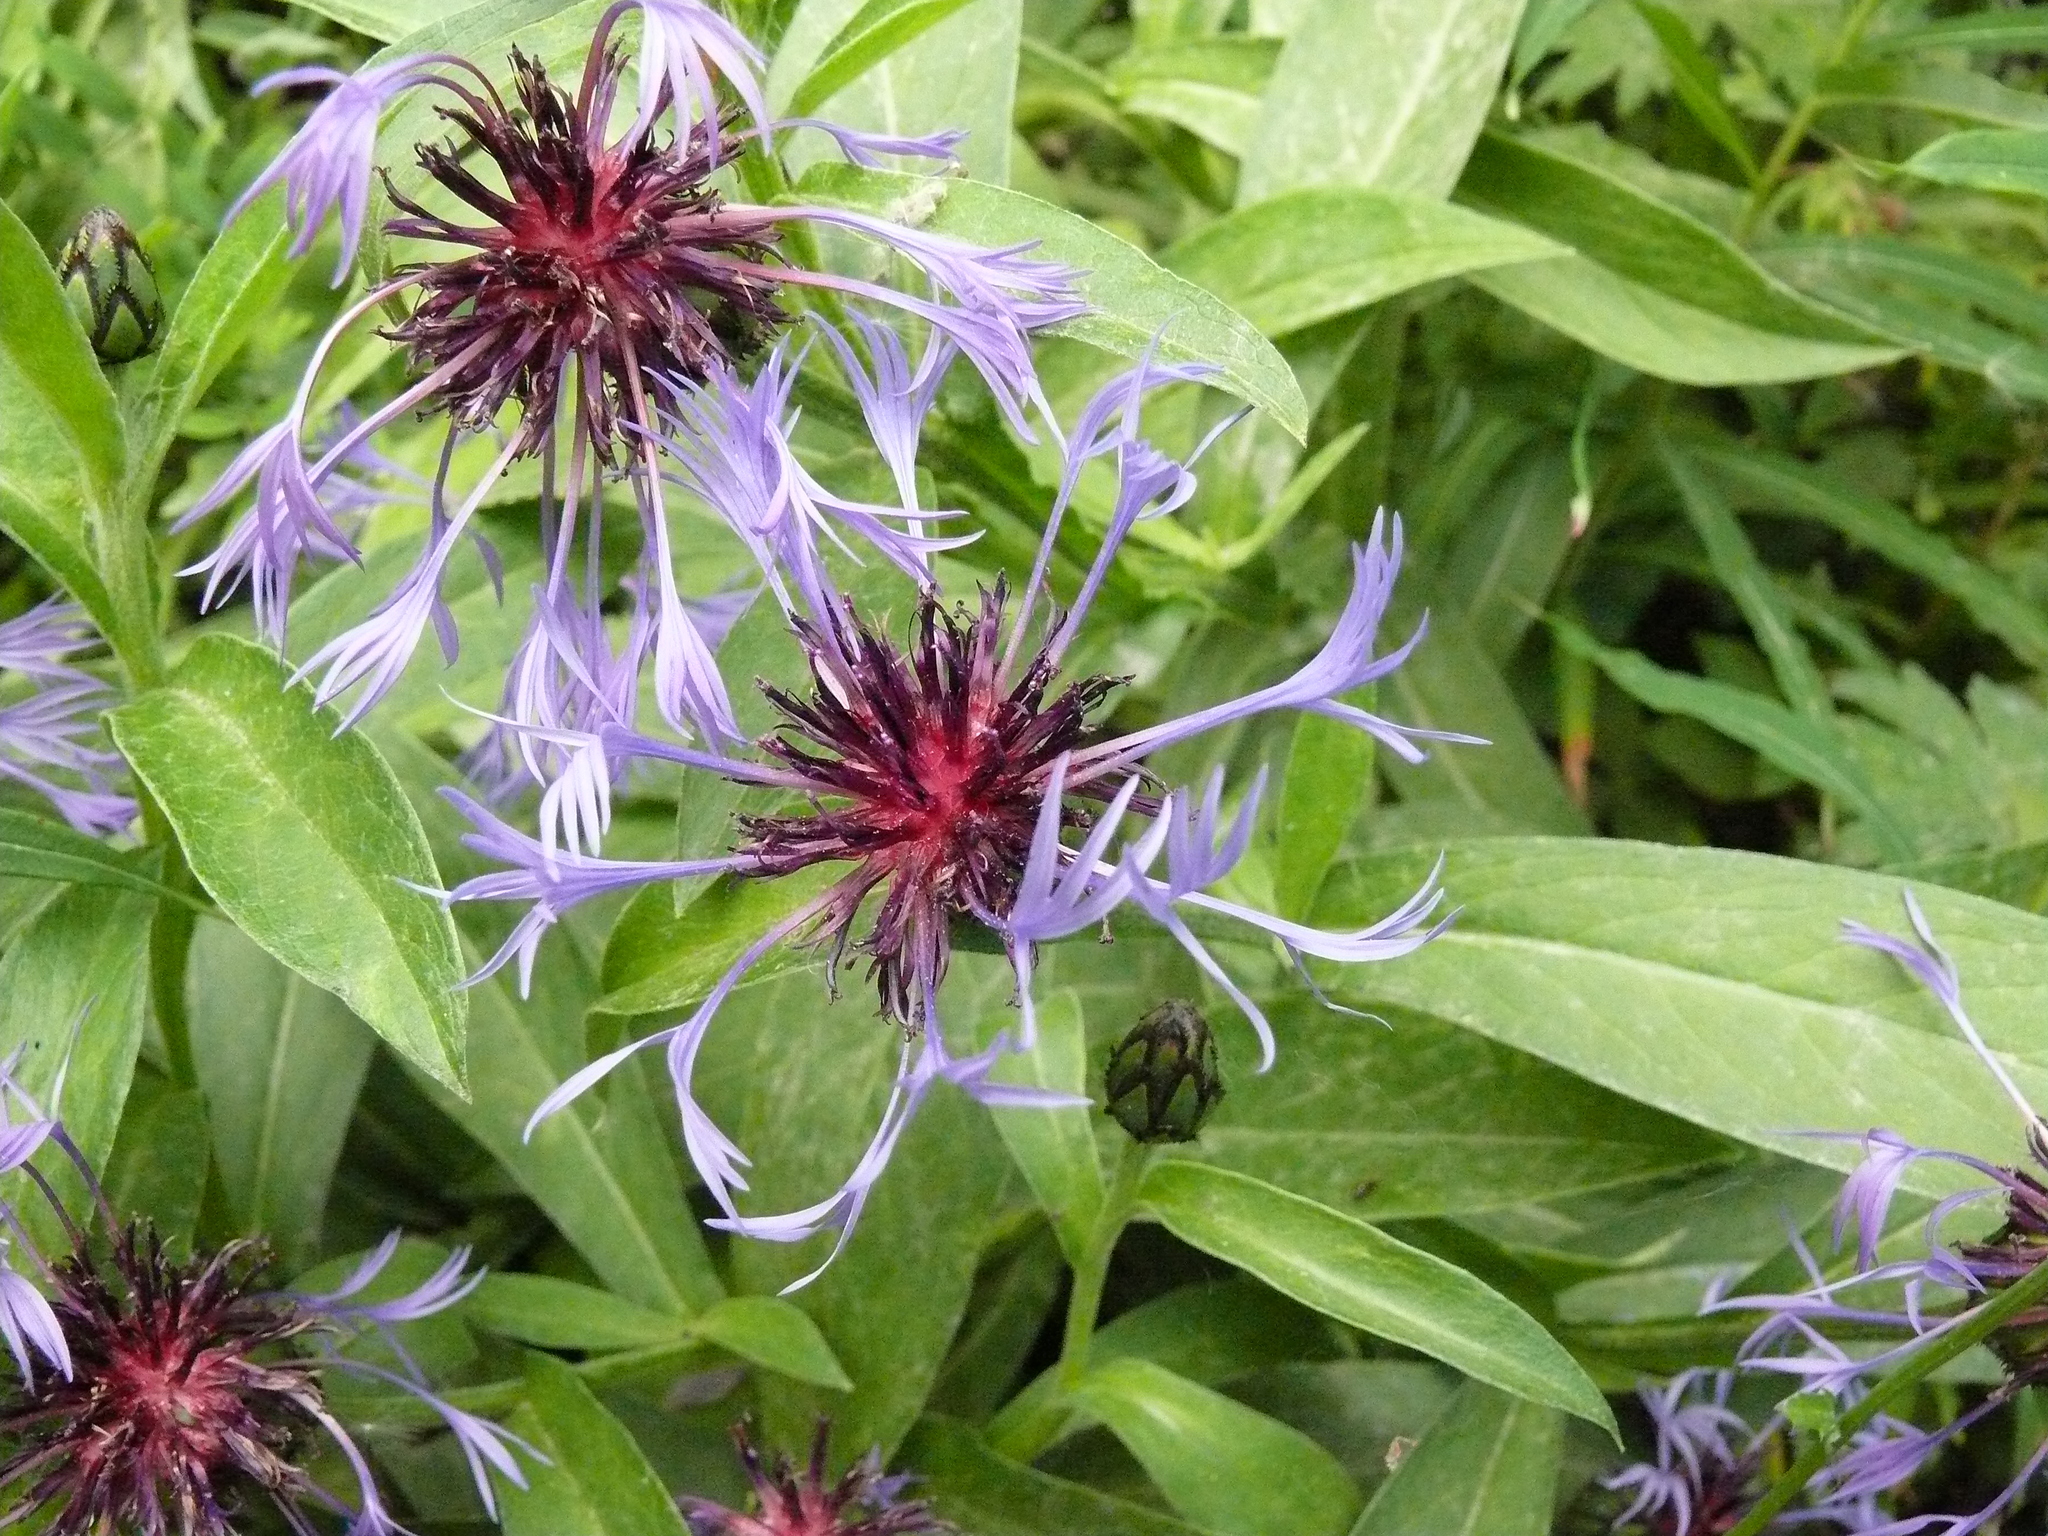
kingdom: Plantae
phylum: Tracheophyta
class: Magnoliopsida
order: Asterales
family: Asteraceae
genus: Centaurea
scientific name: Centaurea montana
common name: Perennial cornflower
